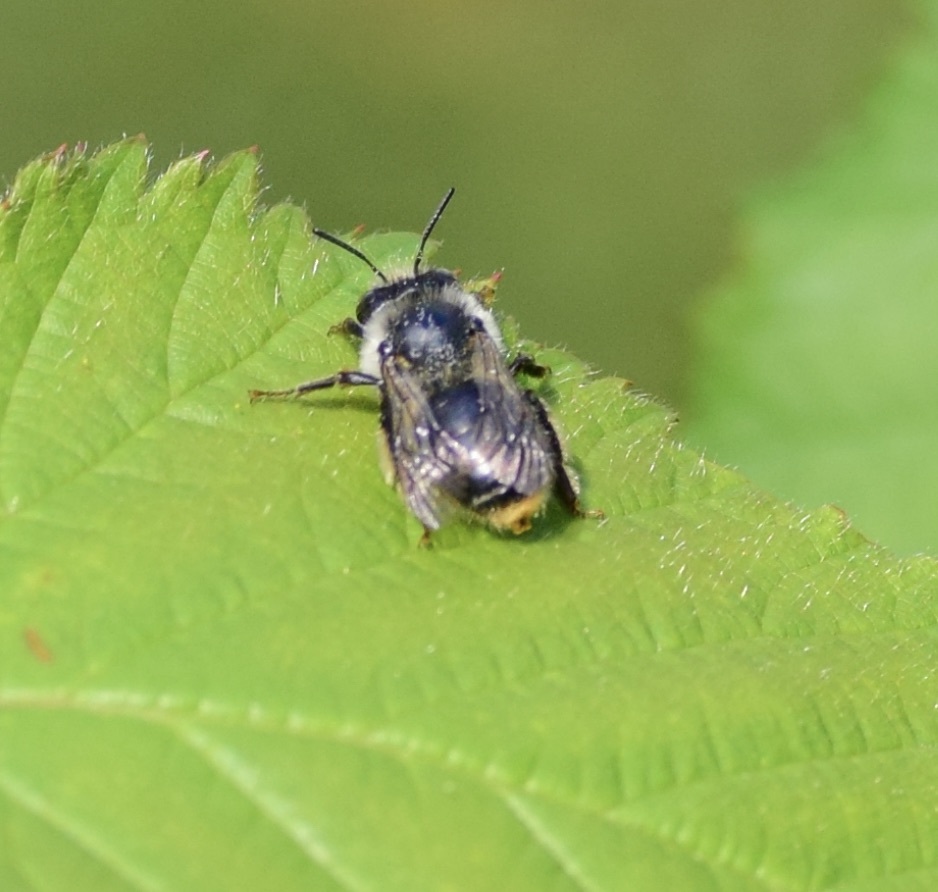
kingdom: Animalia
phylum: Arthropoda
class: Insecta
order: Hymenoptera
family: Apidae
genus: Anthophora
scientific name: Anthophora terminalis
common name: Orange-tipped wood-digger bee
